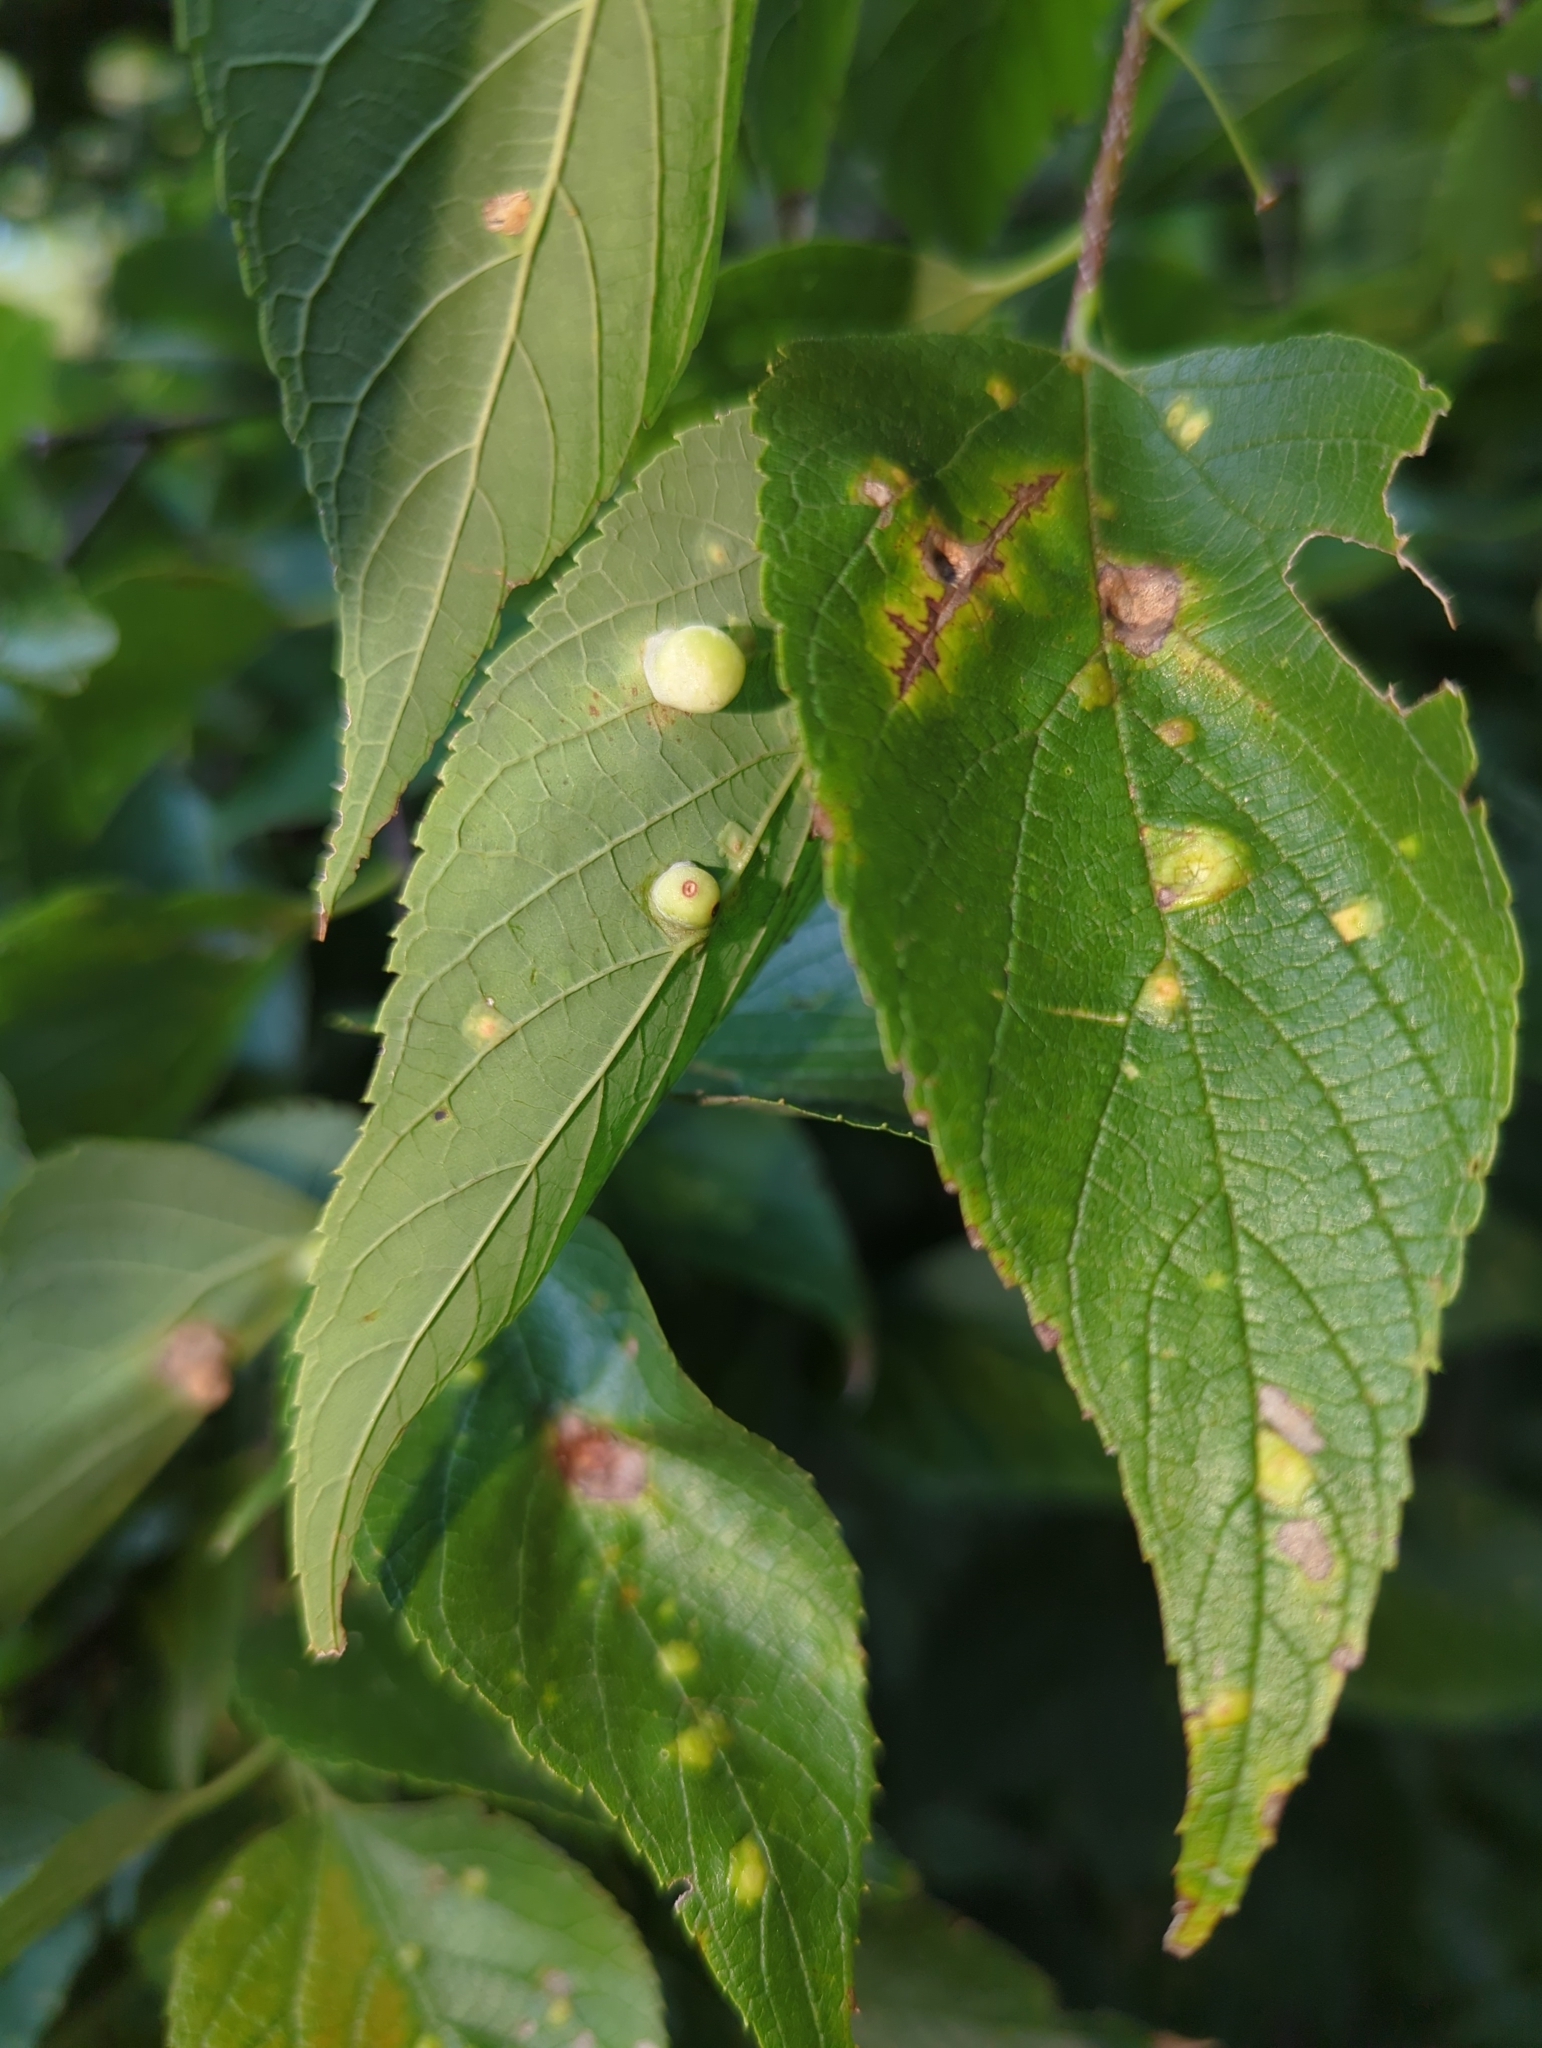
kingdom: Animalia
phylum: Arthropoda
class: Insecta
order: Hemiptera
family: Aphalaridae
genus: Pachypsylla
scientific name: Pachypsylla celtidismamma
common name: Hackberry nipplegall psyllid
